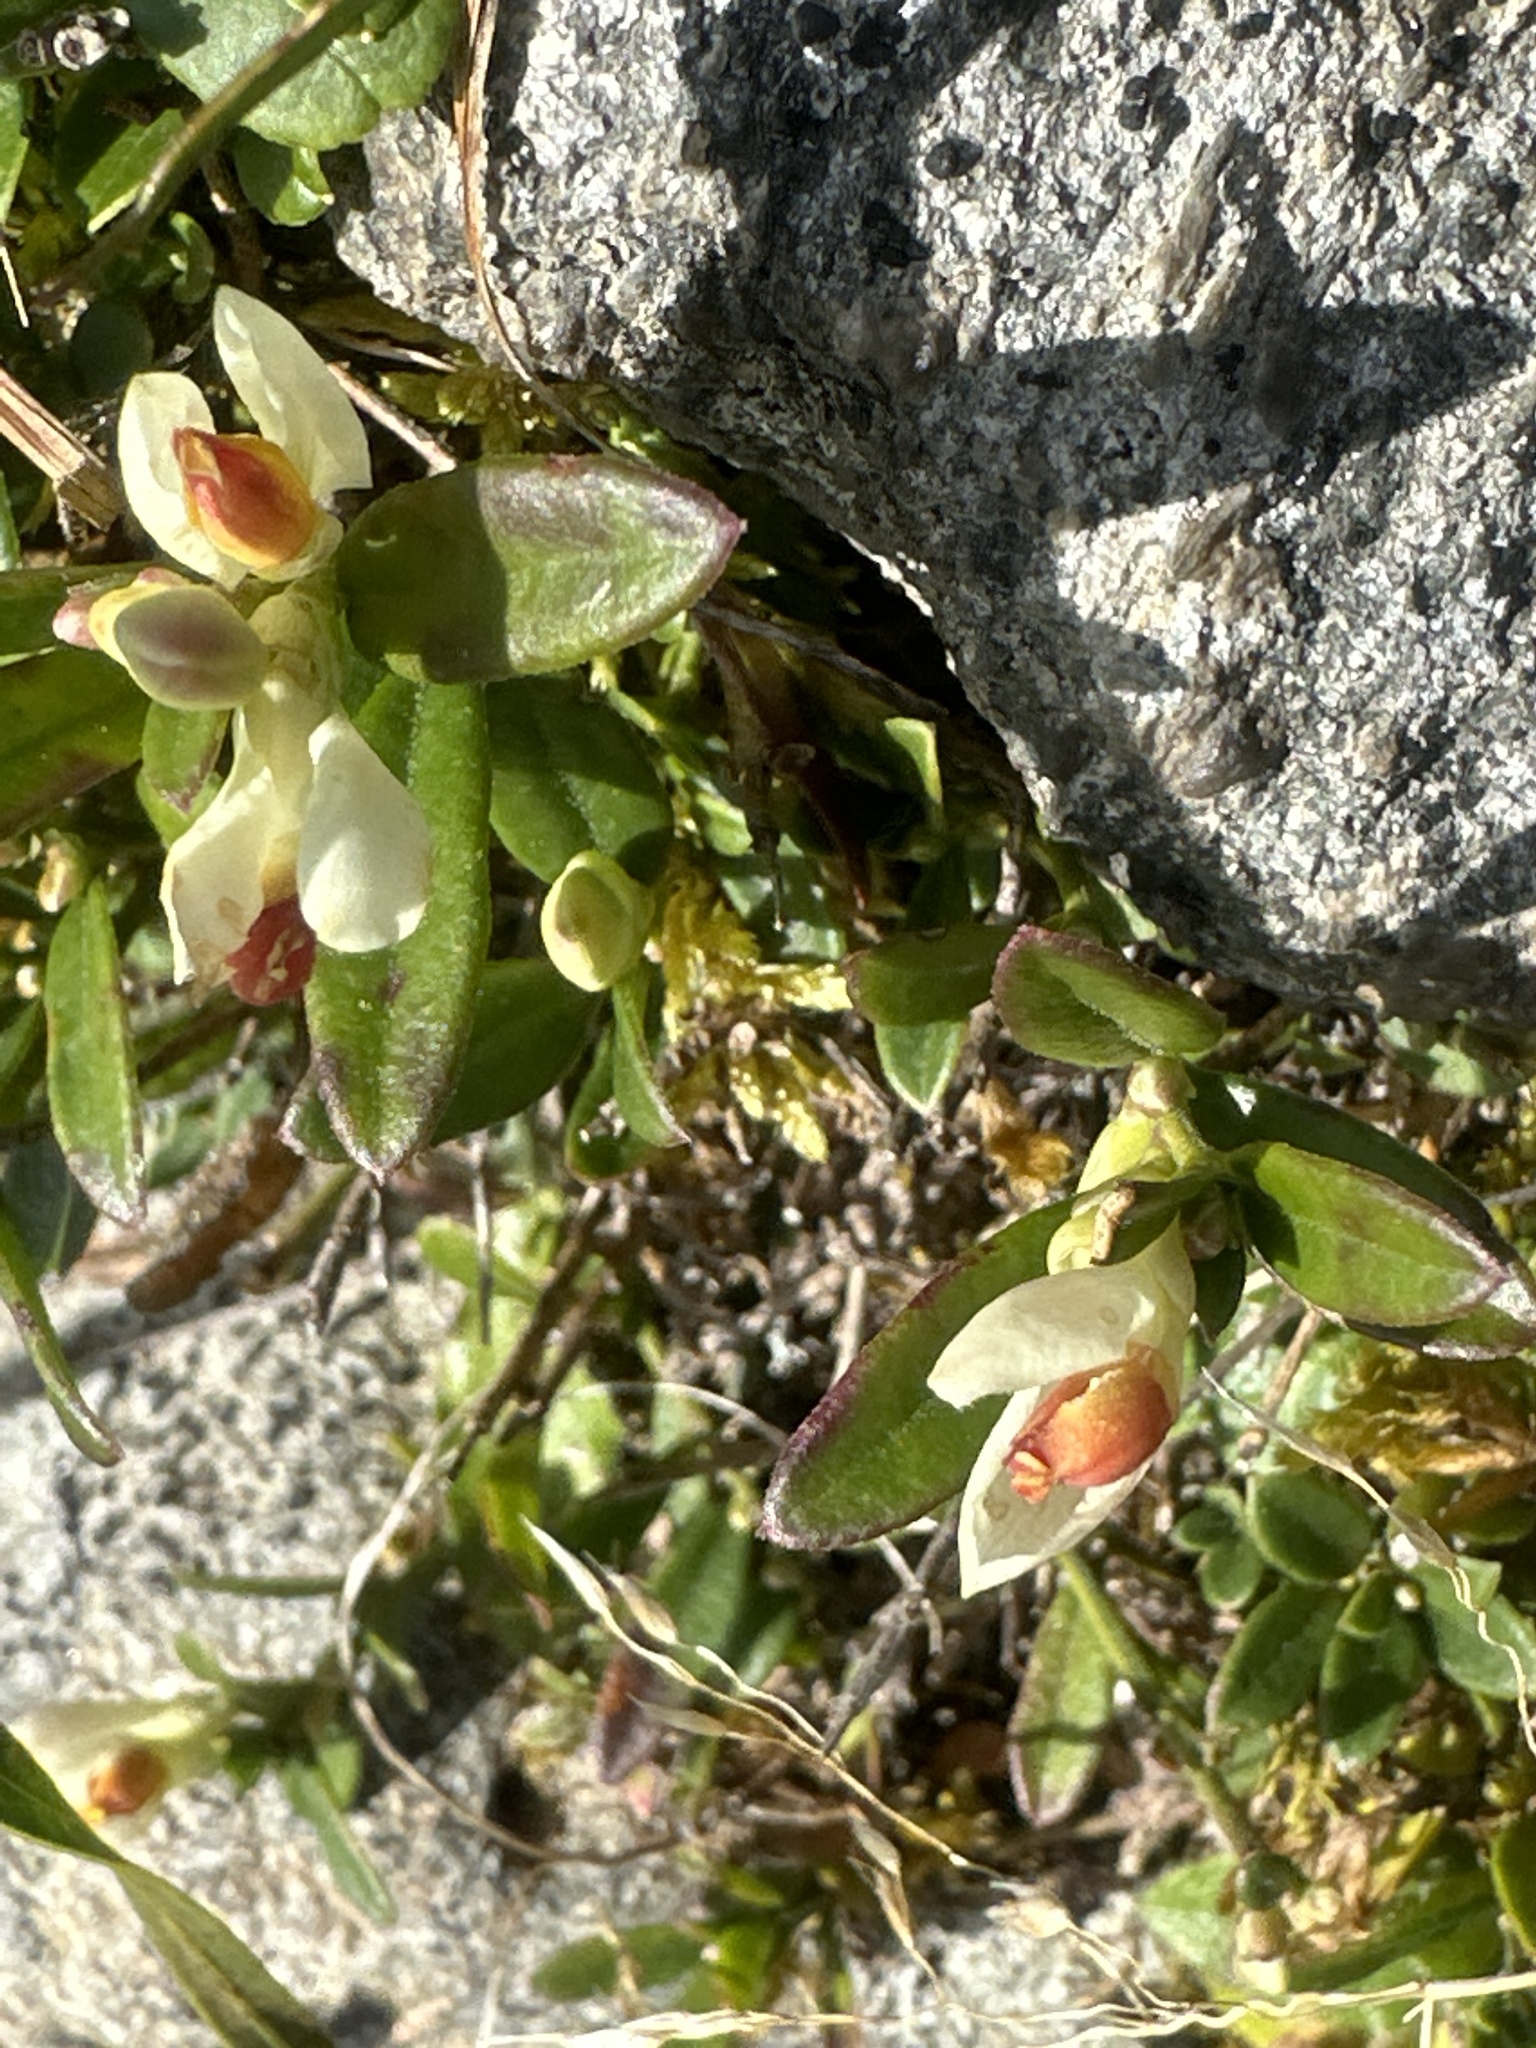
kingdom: Plantae
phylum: Tracheophyta
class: Magnoliopsida
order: Fabales
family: Polygalaceae
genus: Polygaloides
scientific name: Polygaloides chamaebuxus
